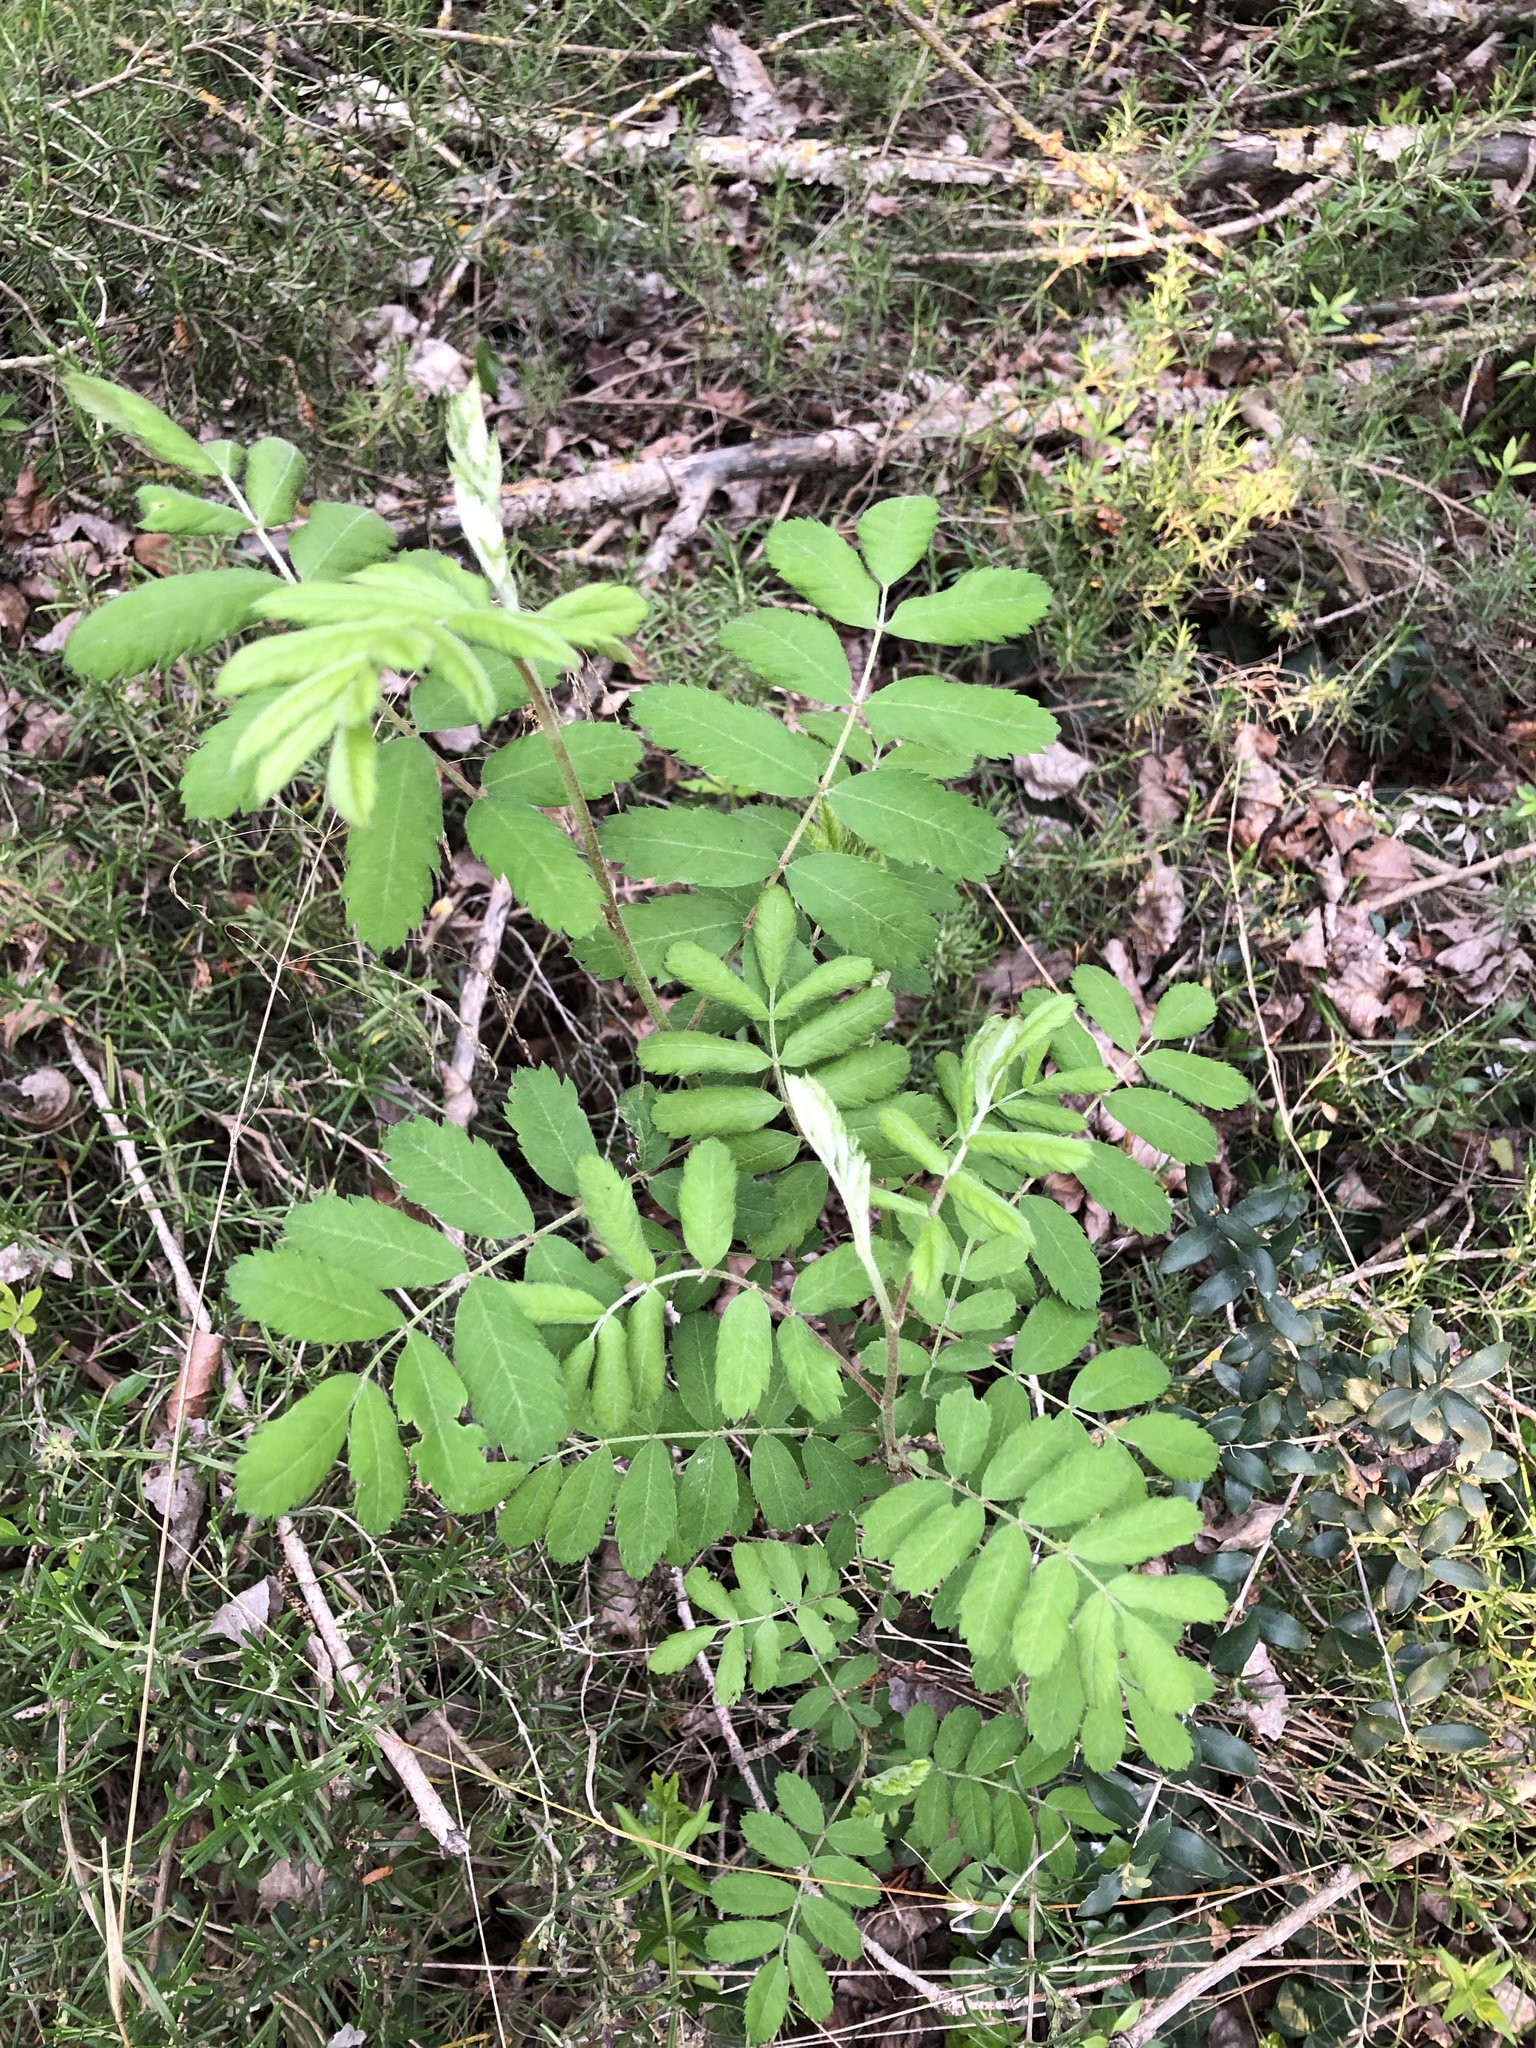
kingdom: Plantae
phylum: Tracheophyta
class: Magnoliopsida
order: Rosales
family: Rosaceae
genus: Cormus
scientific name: Cormus domestica
